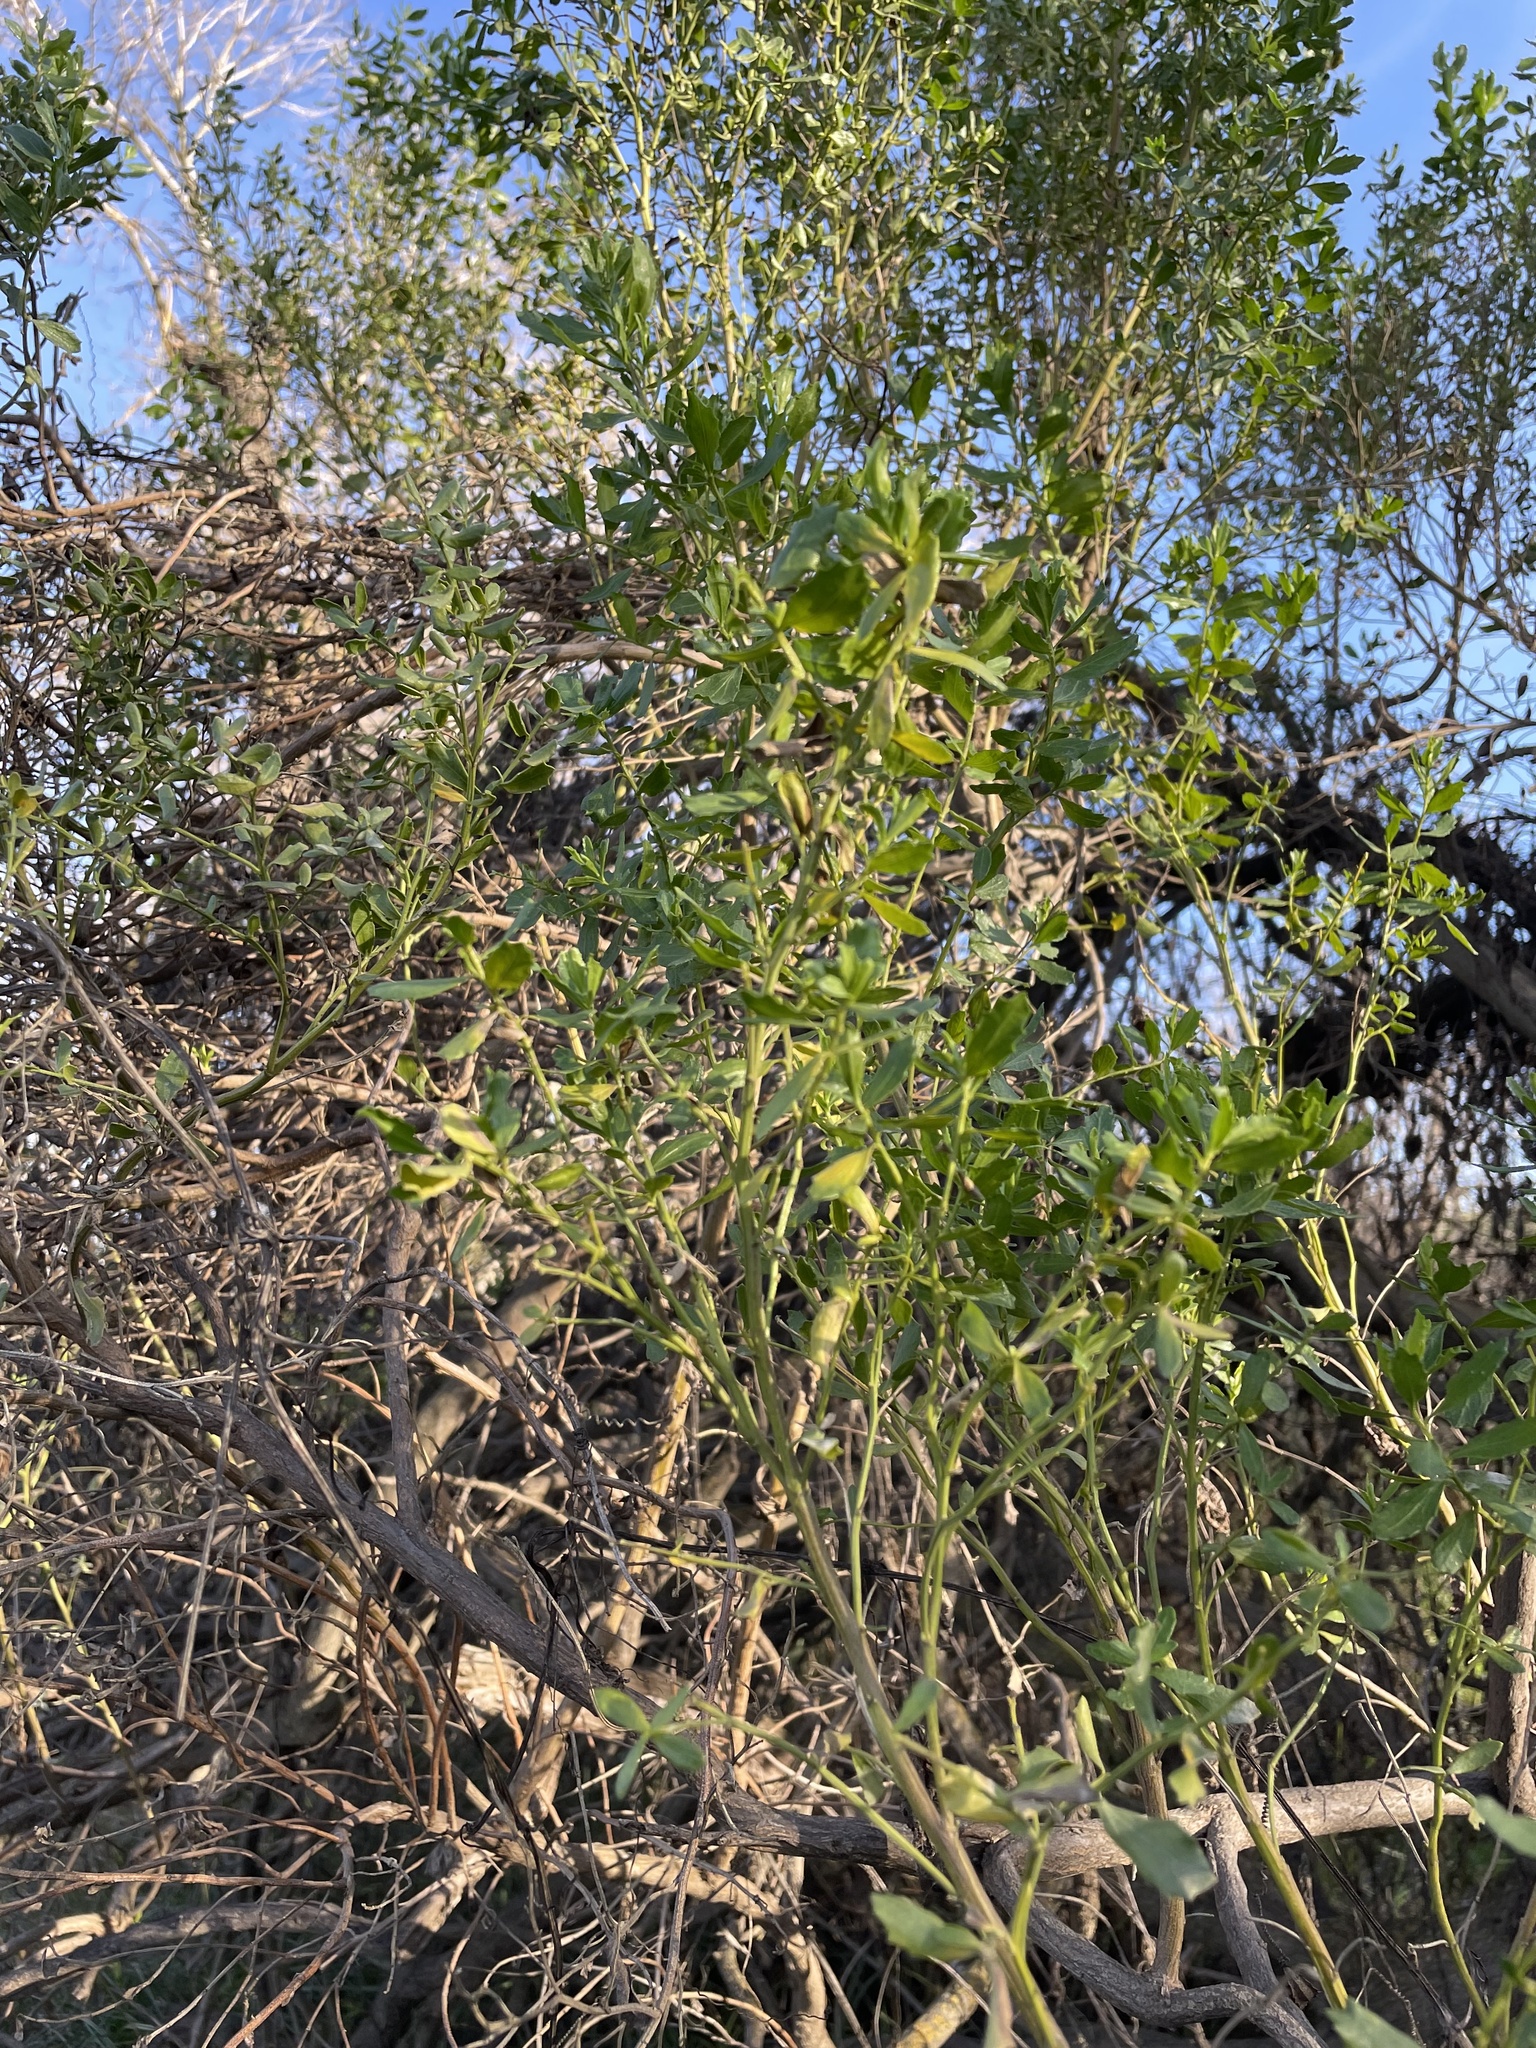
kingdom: Plantae
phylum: Tracheophyta
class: Magnoliopsida
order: Asterales
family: Asteraceae
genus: Baccharis
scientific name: Baccharis pilularis
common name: Coyotebrush
